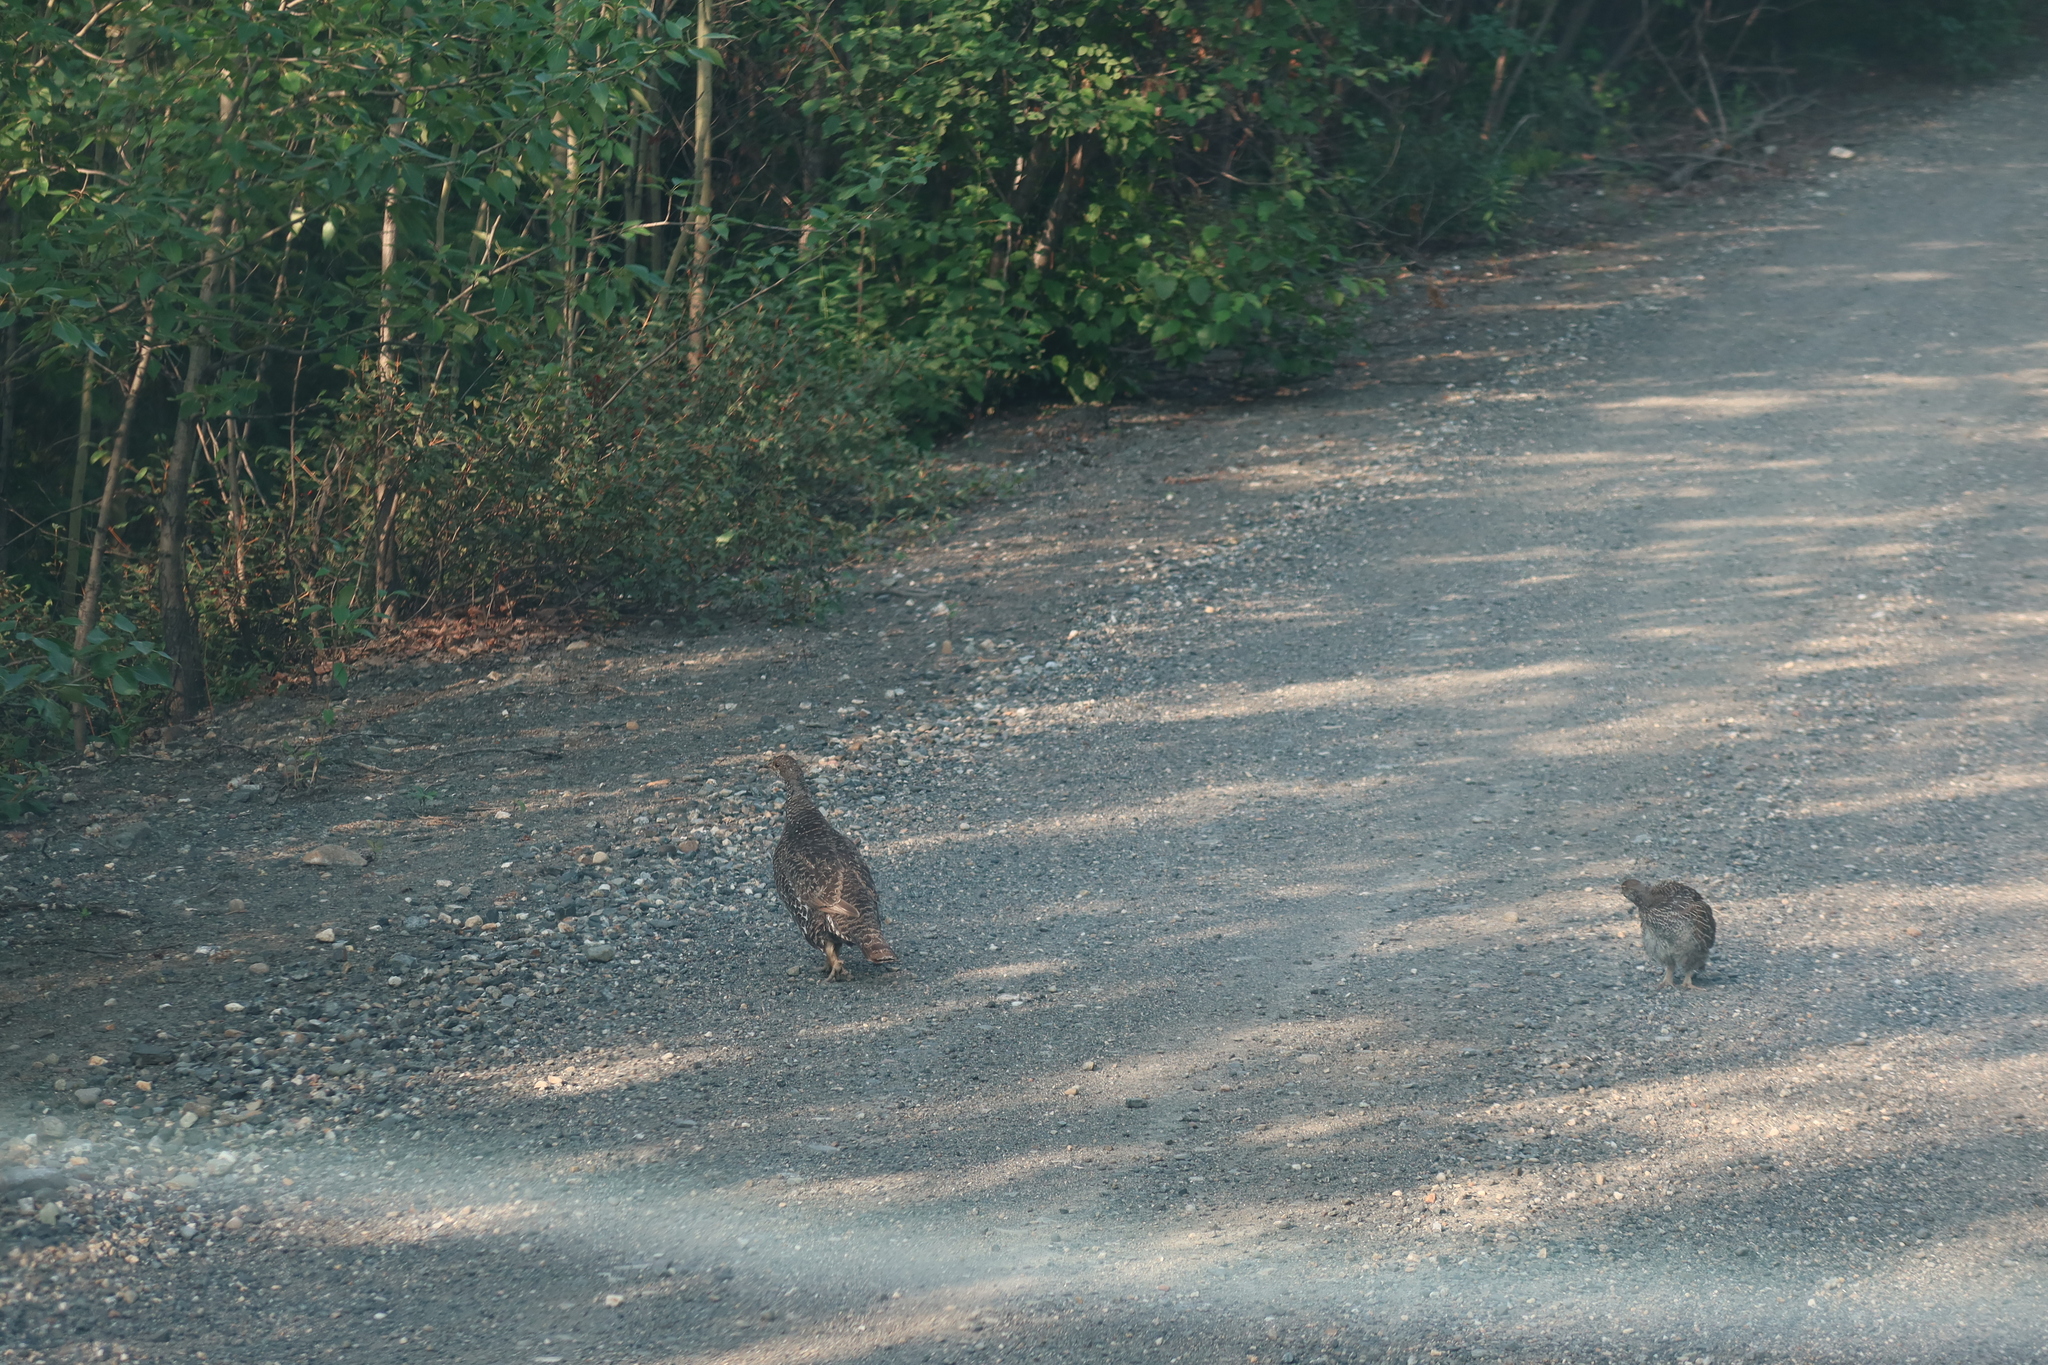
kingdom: Animalia
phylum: Chordata
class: Aves
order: Galliformes
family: Phasianidae
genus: Dendragapus
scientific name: Dendragapus obscurus
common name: Dusky grouse
